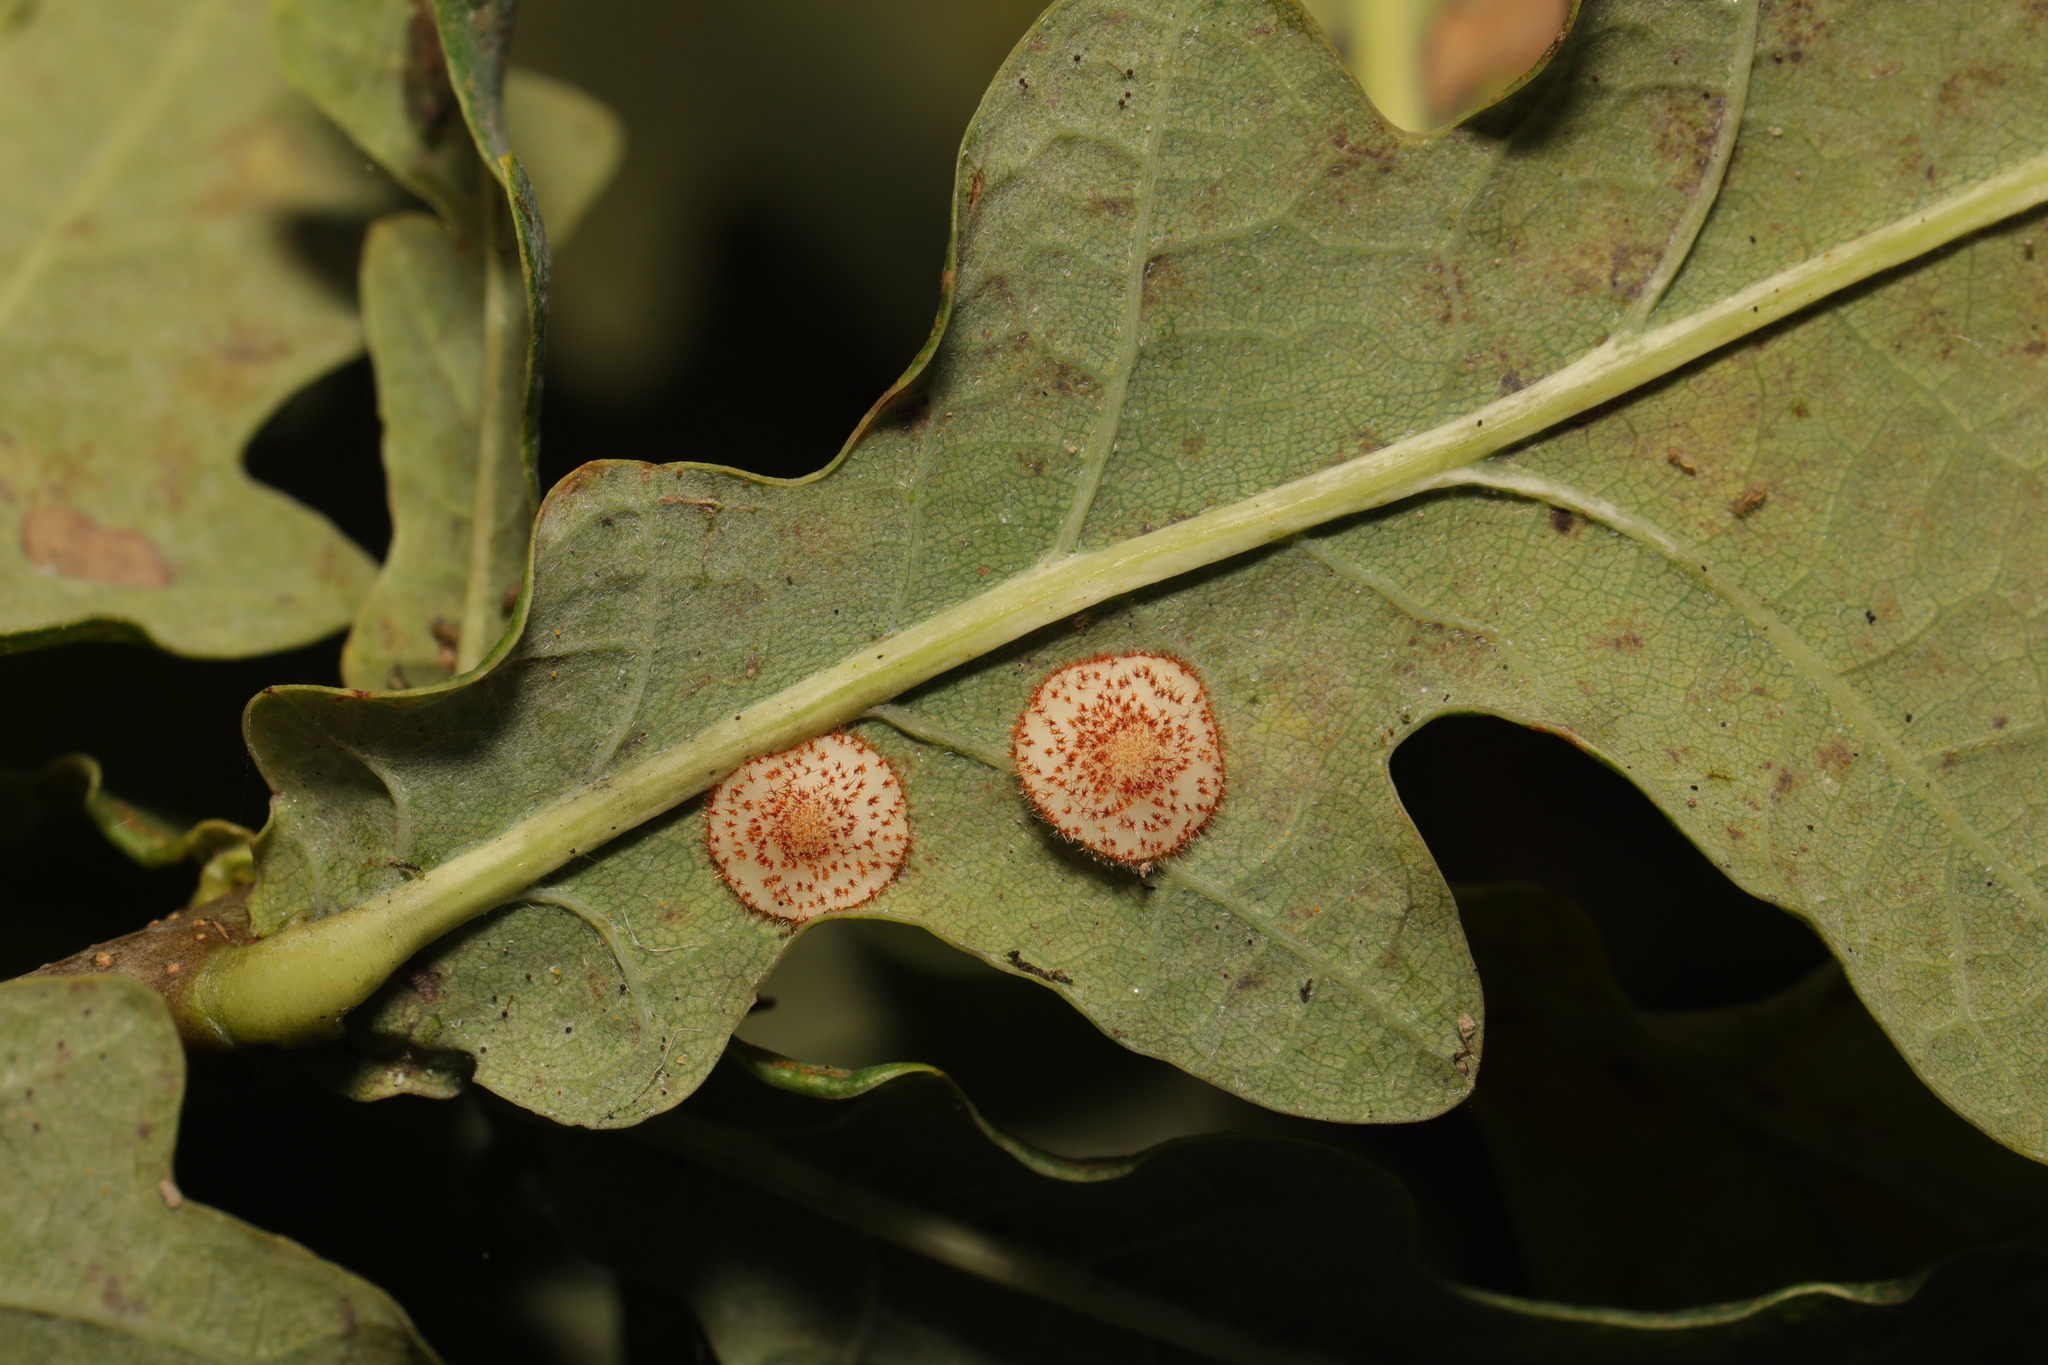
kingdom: Animalia
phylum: Arthropoda
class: Insecta
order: Hymenoptera
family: Cynipidae
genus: Neuroterus
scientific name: Neuroterus quercusbaccarum
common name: Common spangle gall
